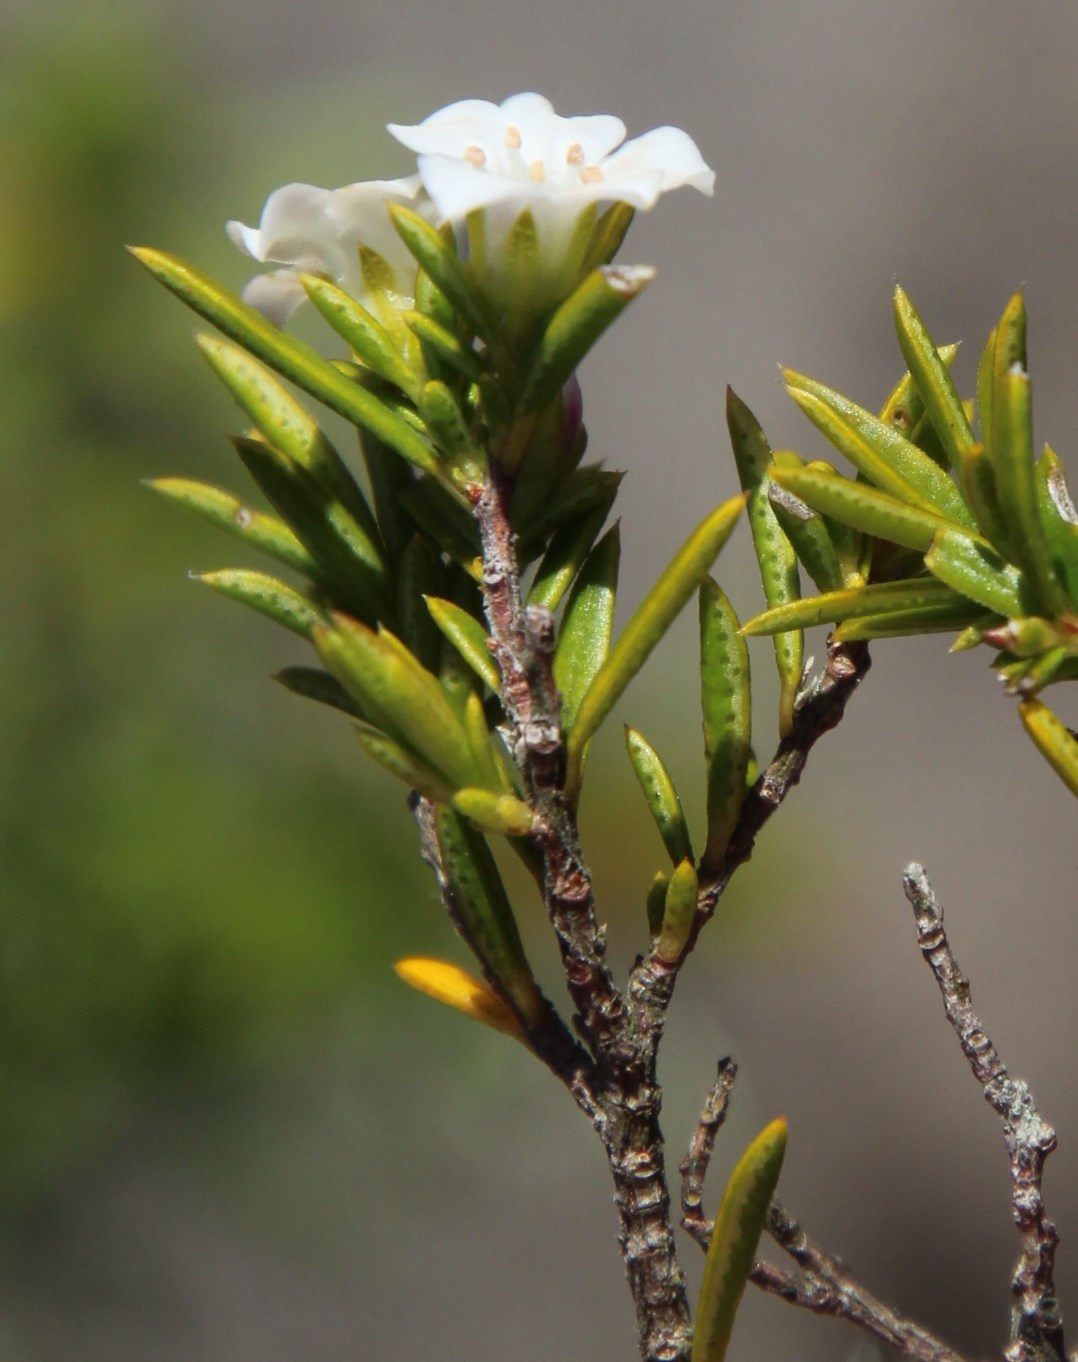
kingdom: Plantae
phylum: Tracheophyta
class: Magnoliopsida
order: Sapindales
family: Rutaceae
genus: Coleonema
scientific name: Coleonema album
